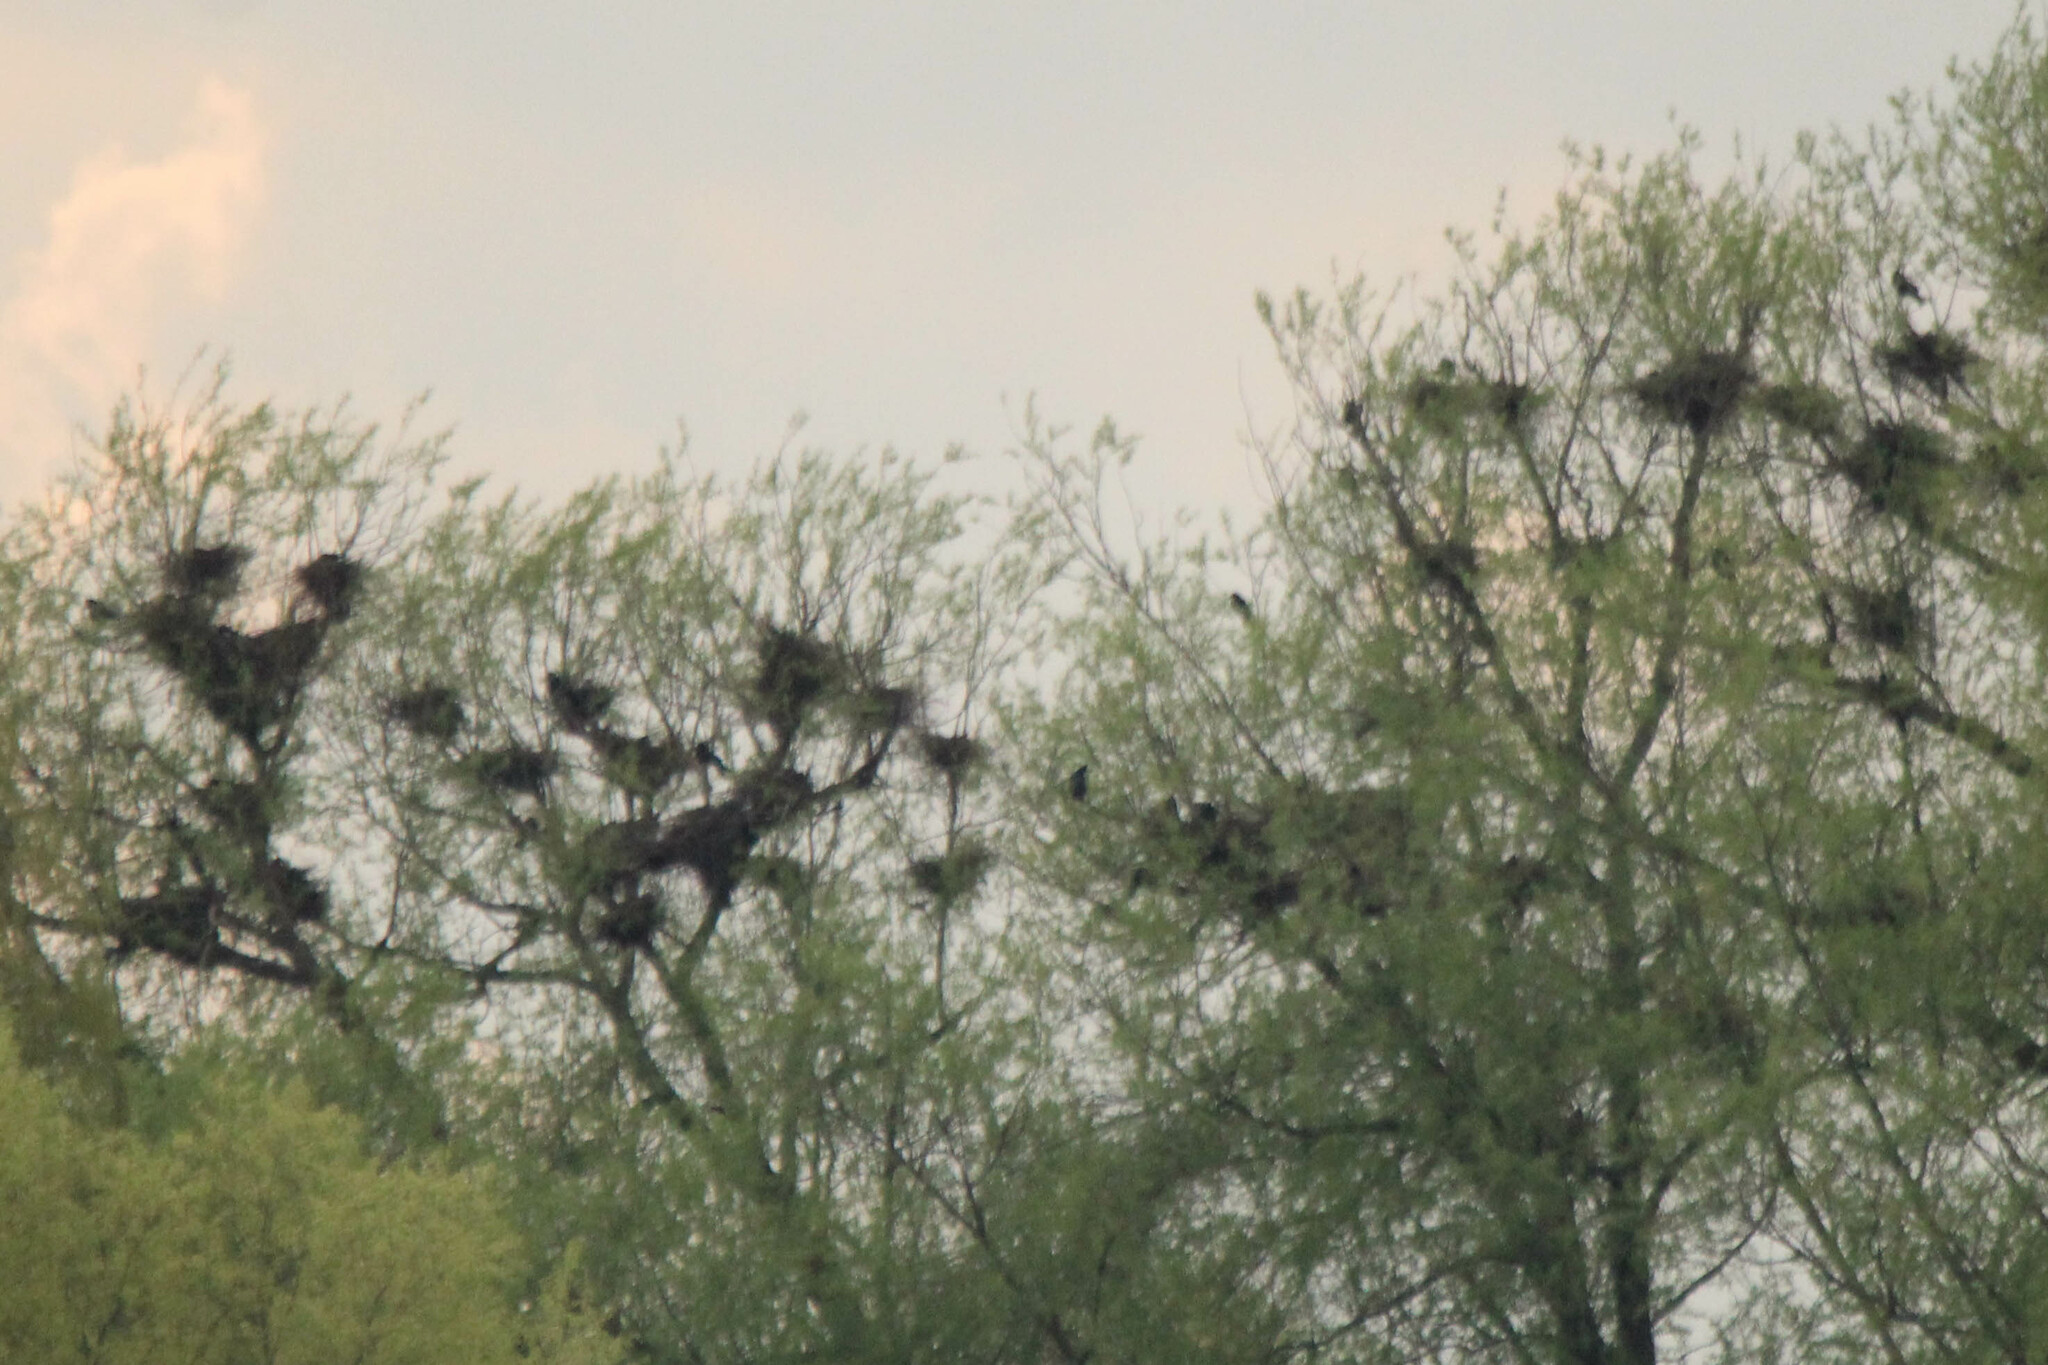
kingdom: Animalia
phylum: Chordata
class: Aves
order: Passeriformes
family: Corvidae
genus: Corvus
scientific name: Corvus frugilegus
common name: Rook
